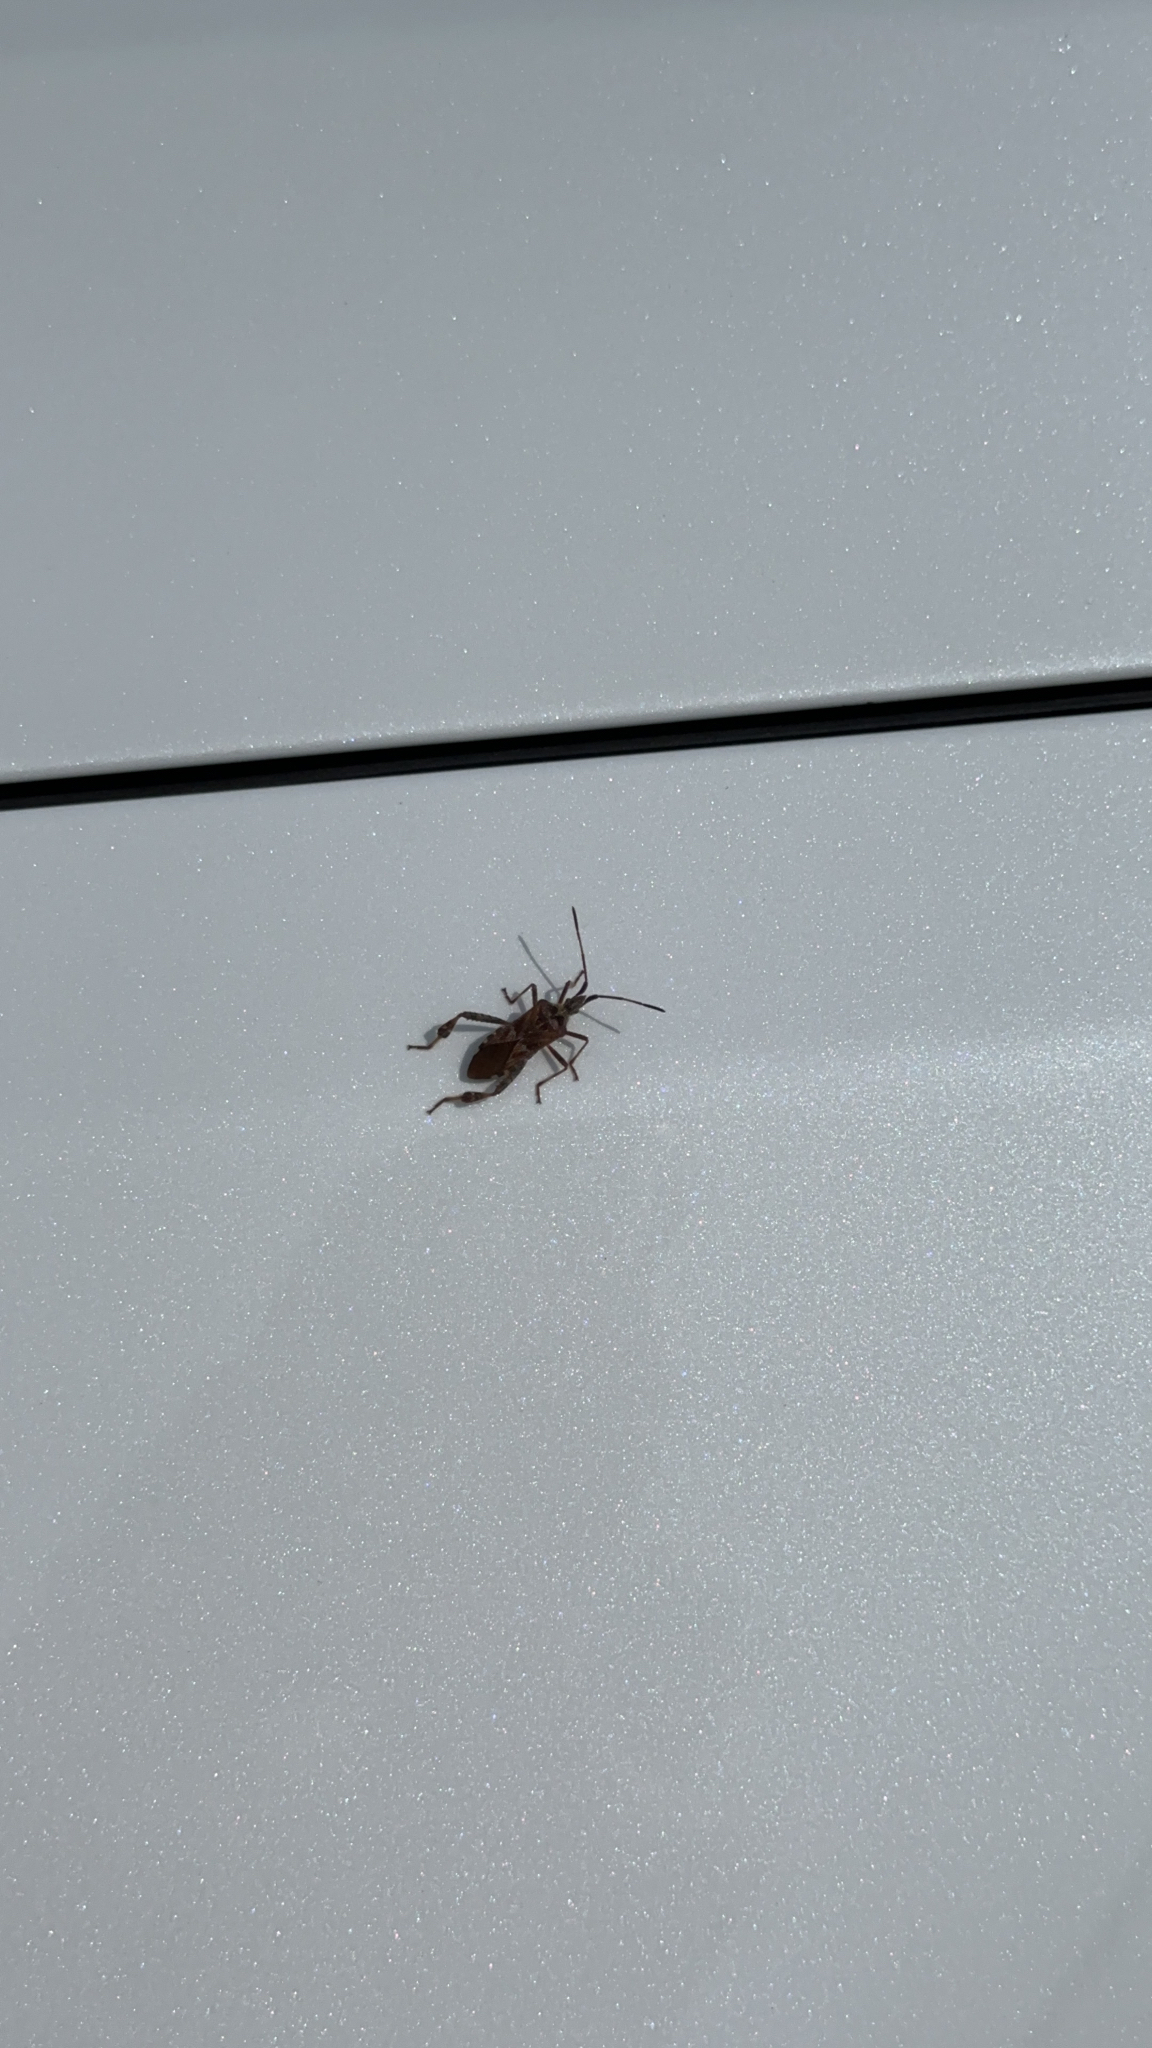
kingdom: Animalia
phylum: Arthropoda
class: Insecta
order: Hemiptera
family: Coreidae
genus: Leptoglossus
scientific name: Leptoglossus occidentalis
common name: Western conifer-seed bug
